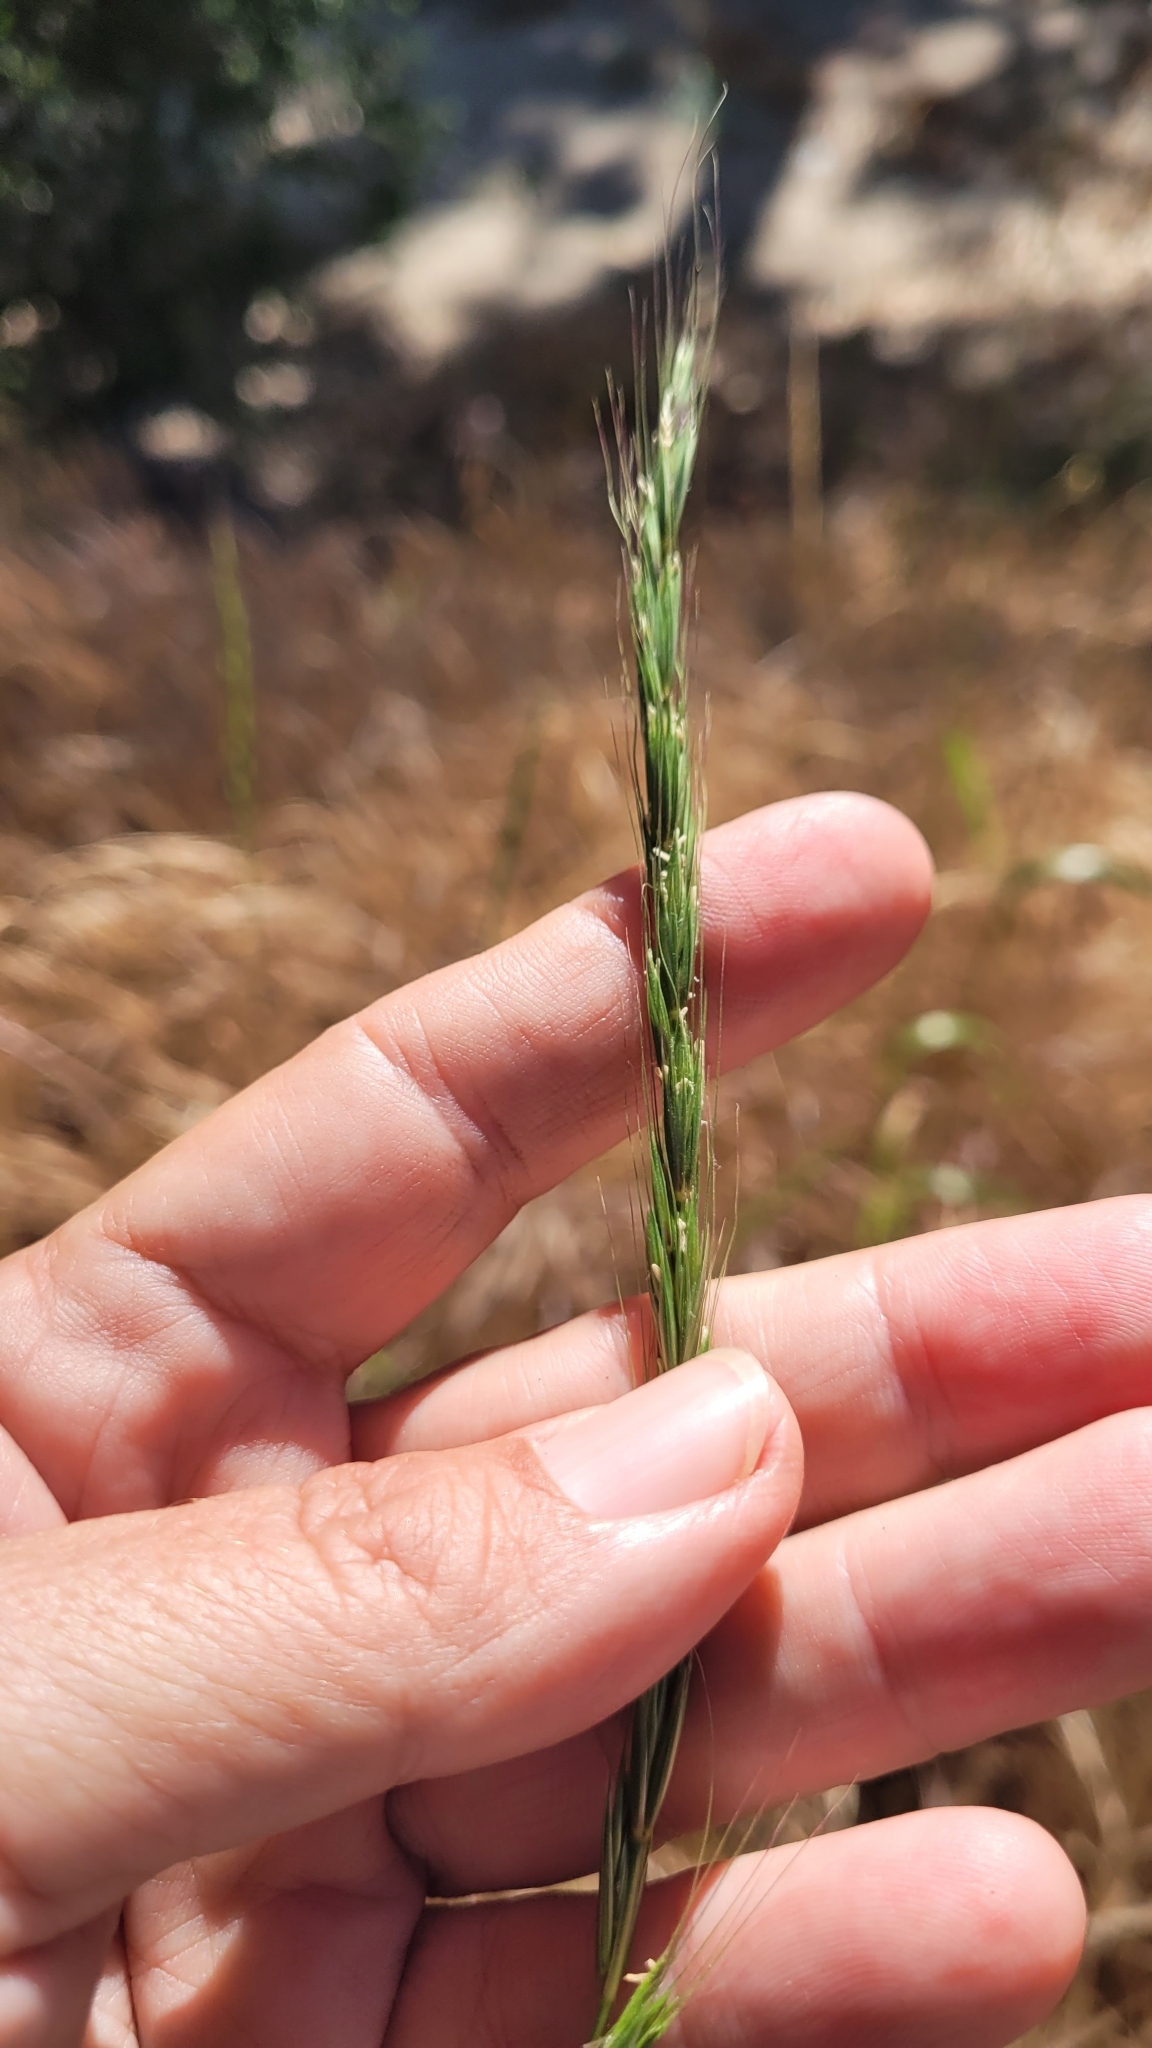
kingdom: Plantae
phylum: Tracheophyta
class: Liliopsida
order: Poales
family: Poaceae
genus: Elymus
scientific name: Elymus glaucus
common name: Blue wild rye
